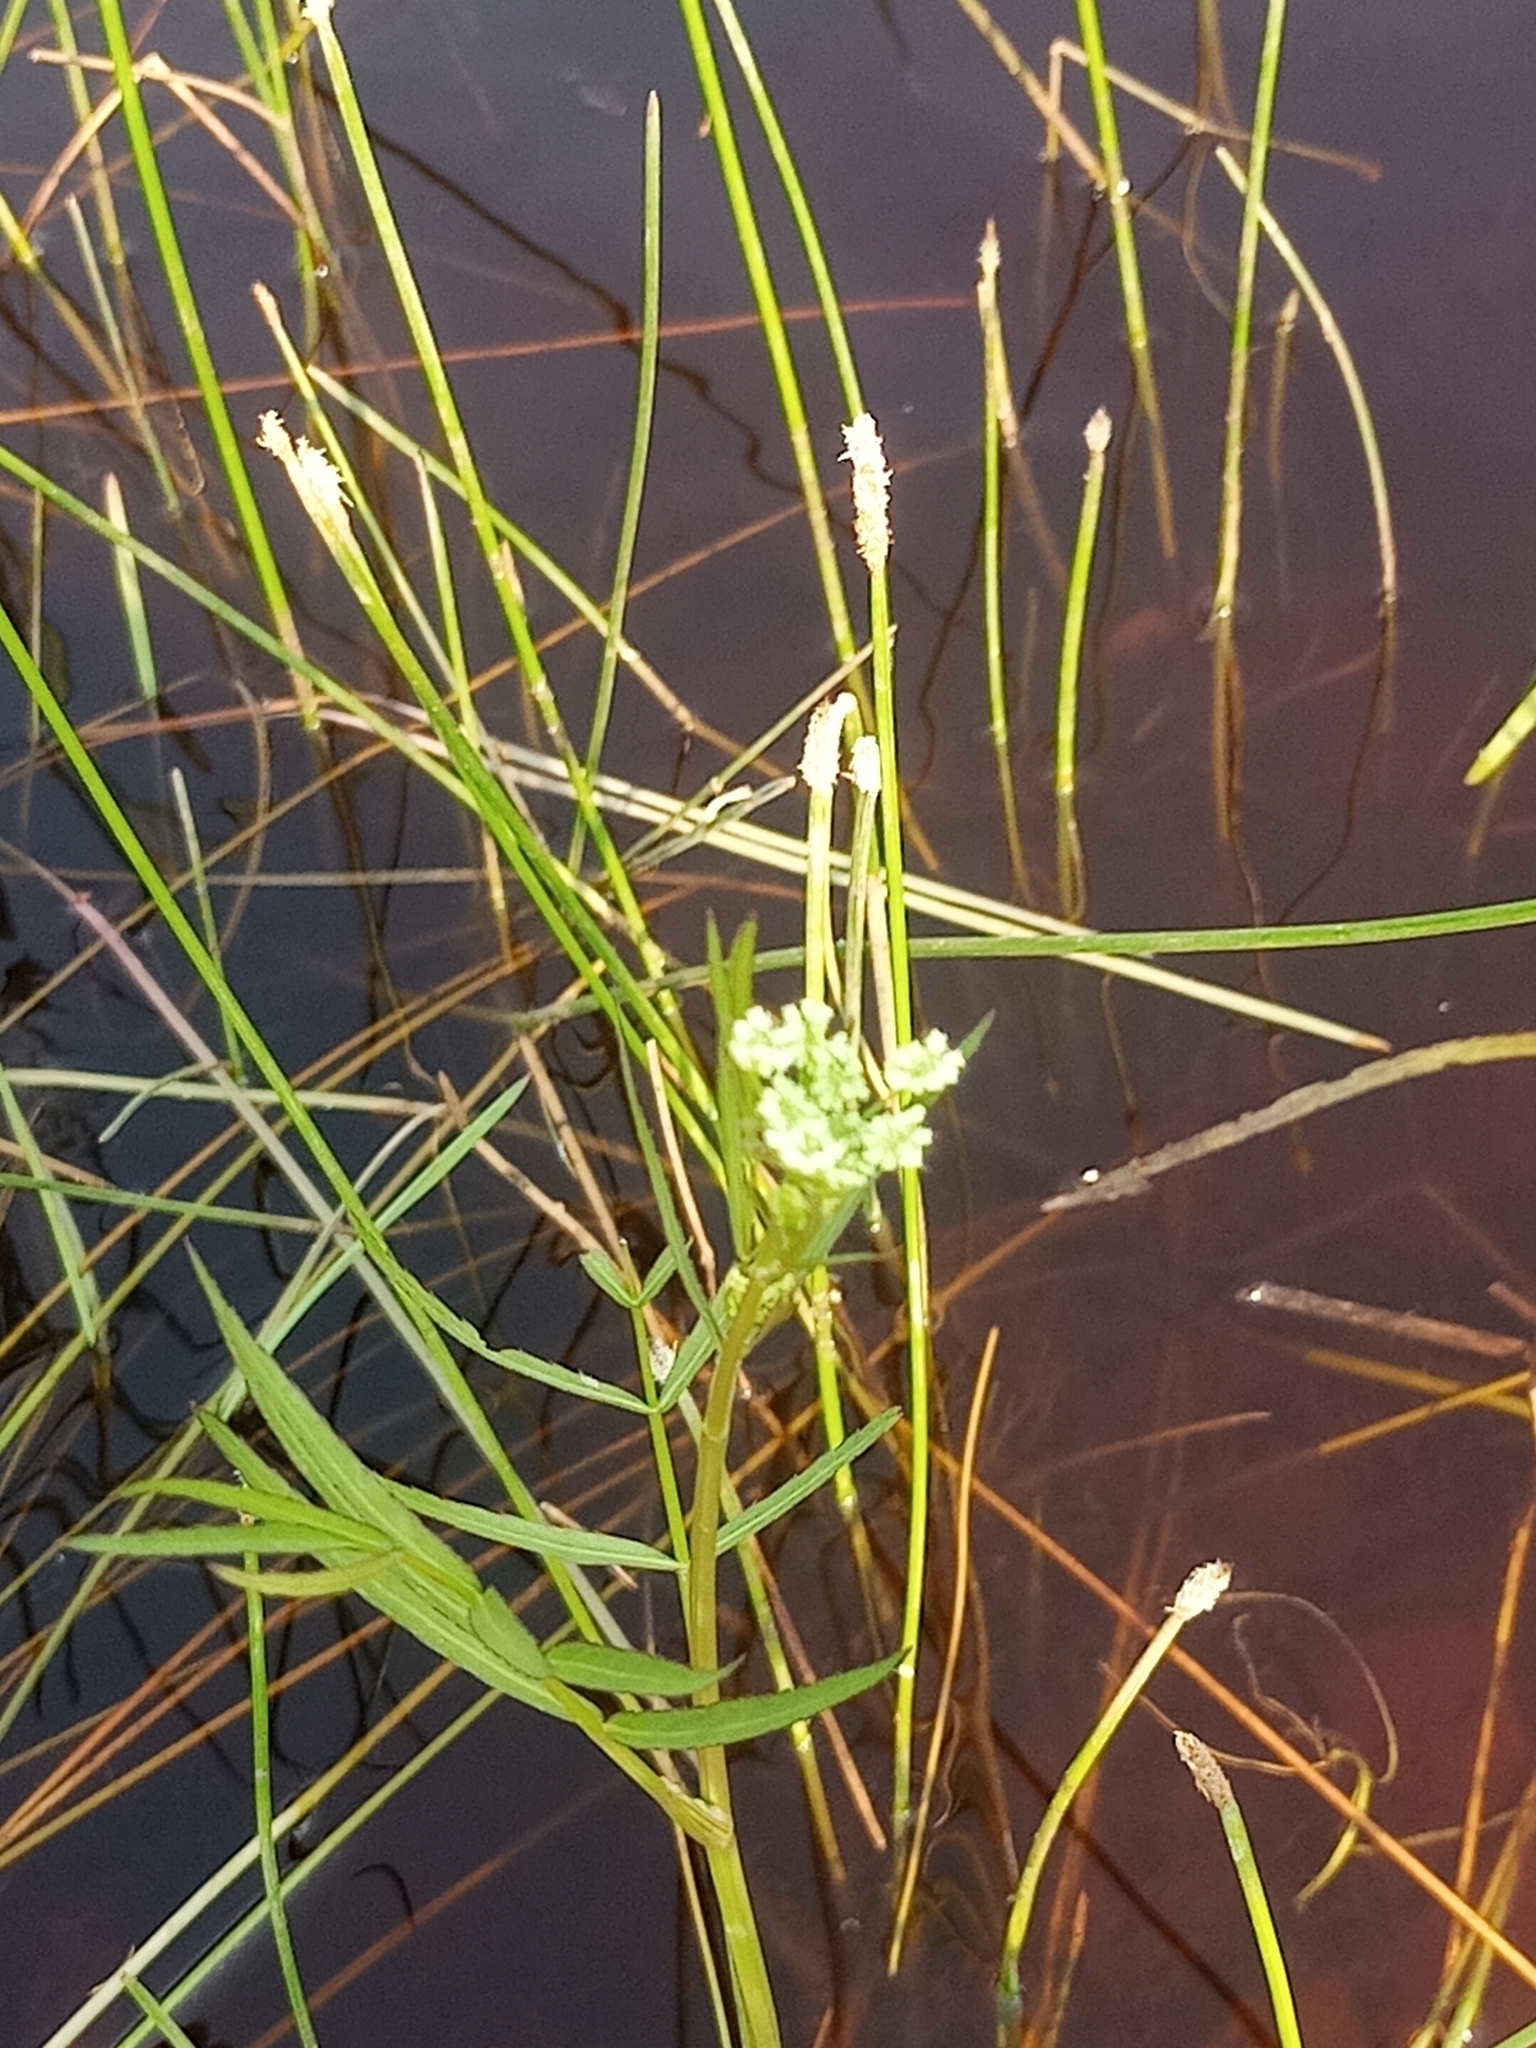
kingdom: Plantae
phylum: Tracheophyta
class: Magnoliopsida
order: Apiales
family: Apiaceae
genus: Sium
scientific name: Sium suave
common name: Hemlock water-parsnip
